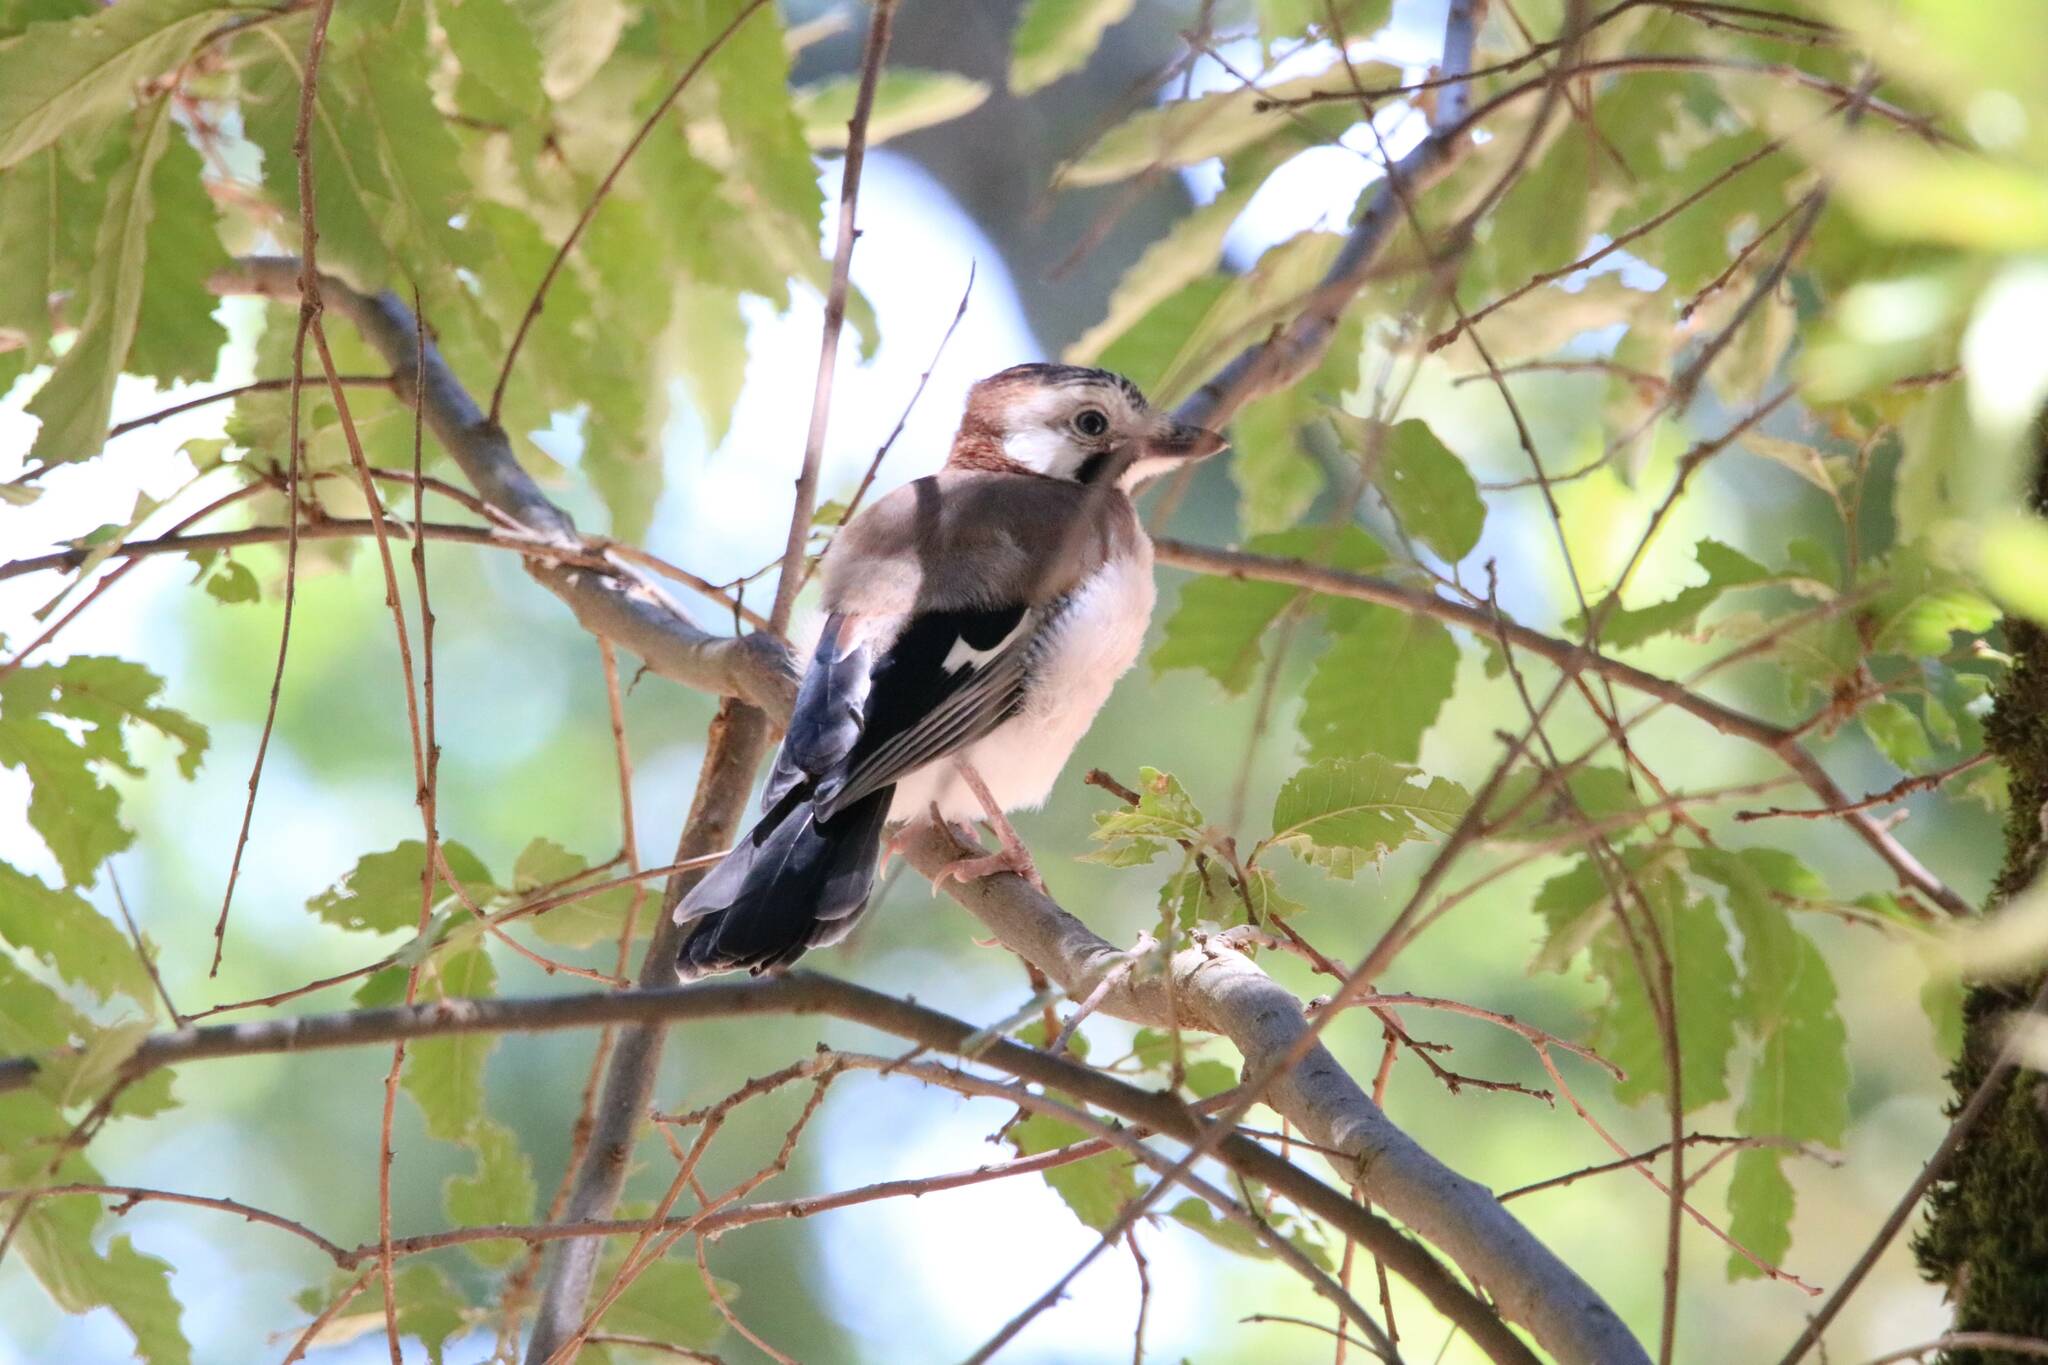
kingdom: Animalia
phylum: Chordata
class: Aves
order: Passeriformes
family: Corvidae
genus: Garrulus
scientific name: Garrulus glandarius
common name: Eurasian jay
